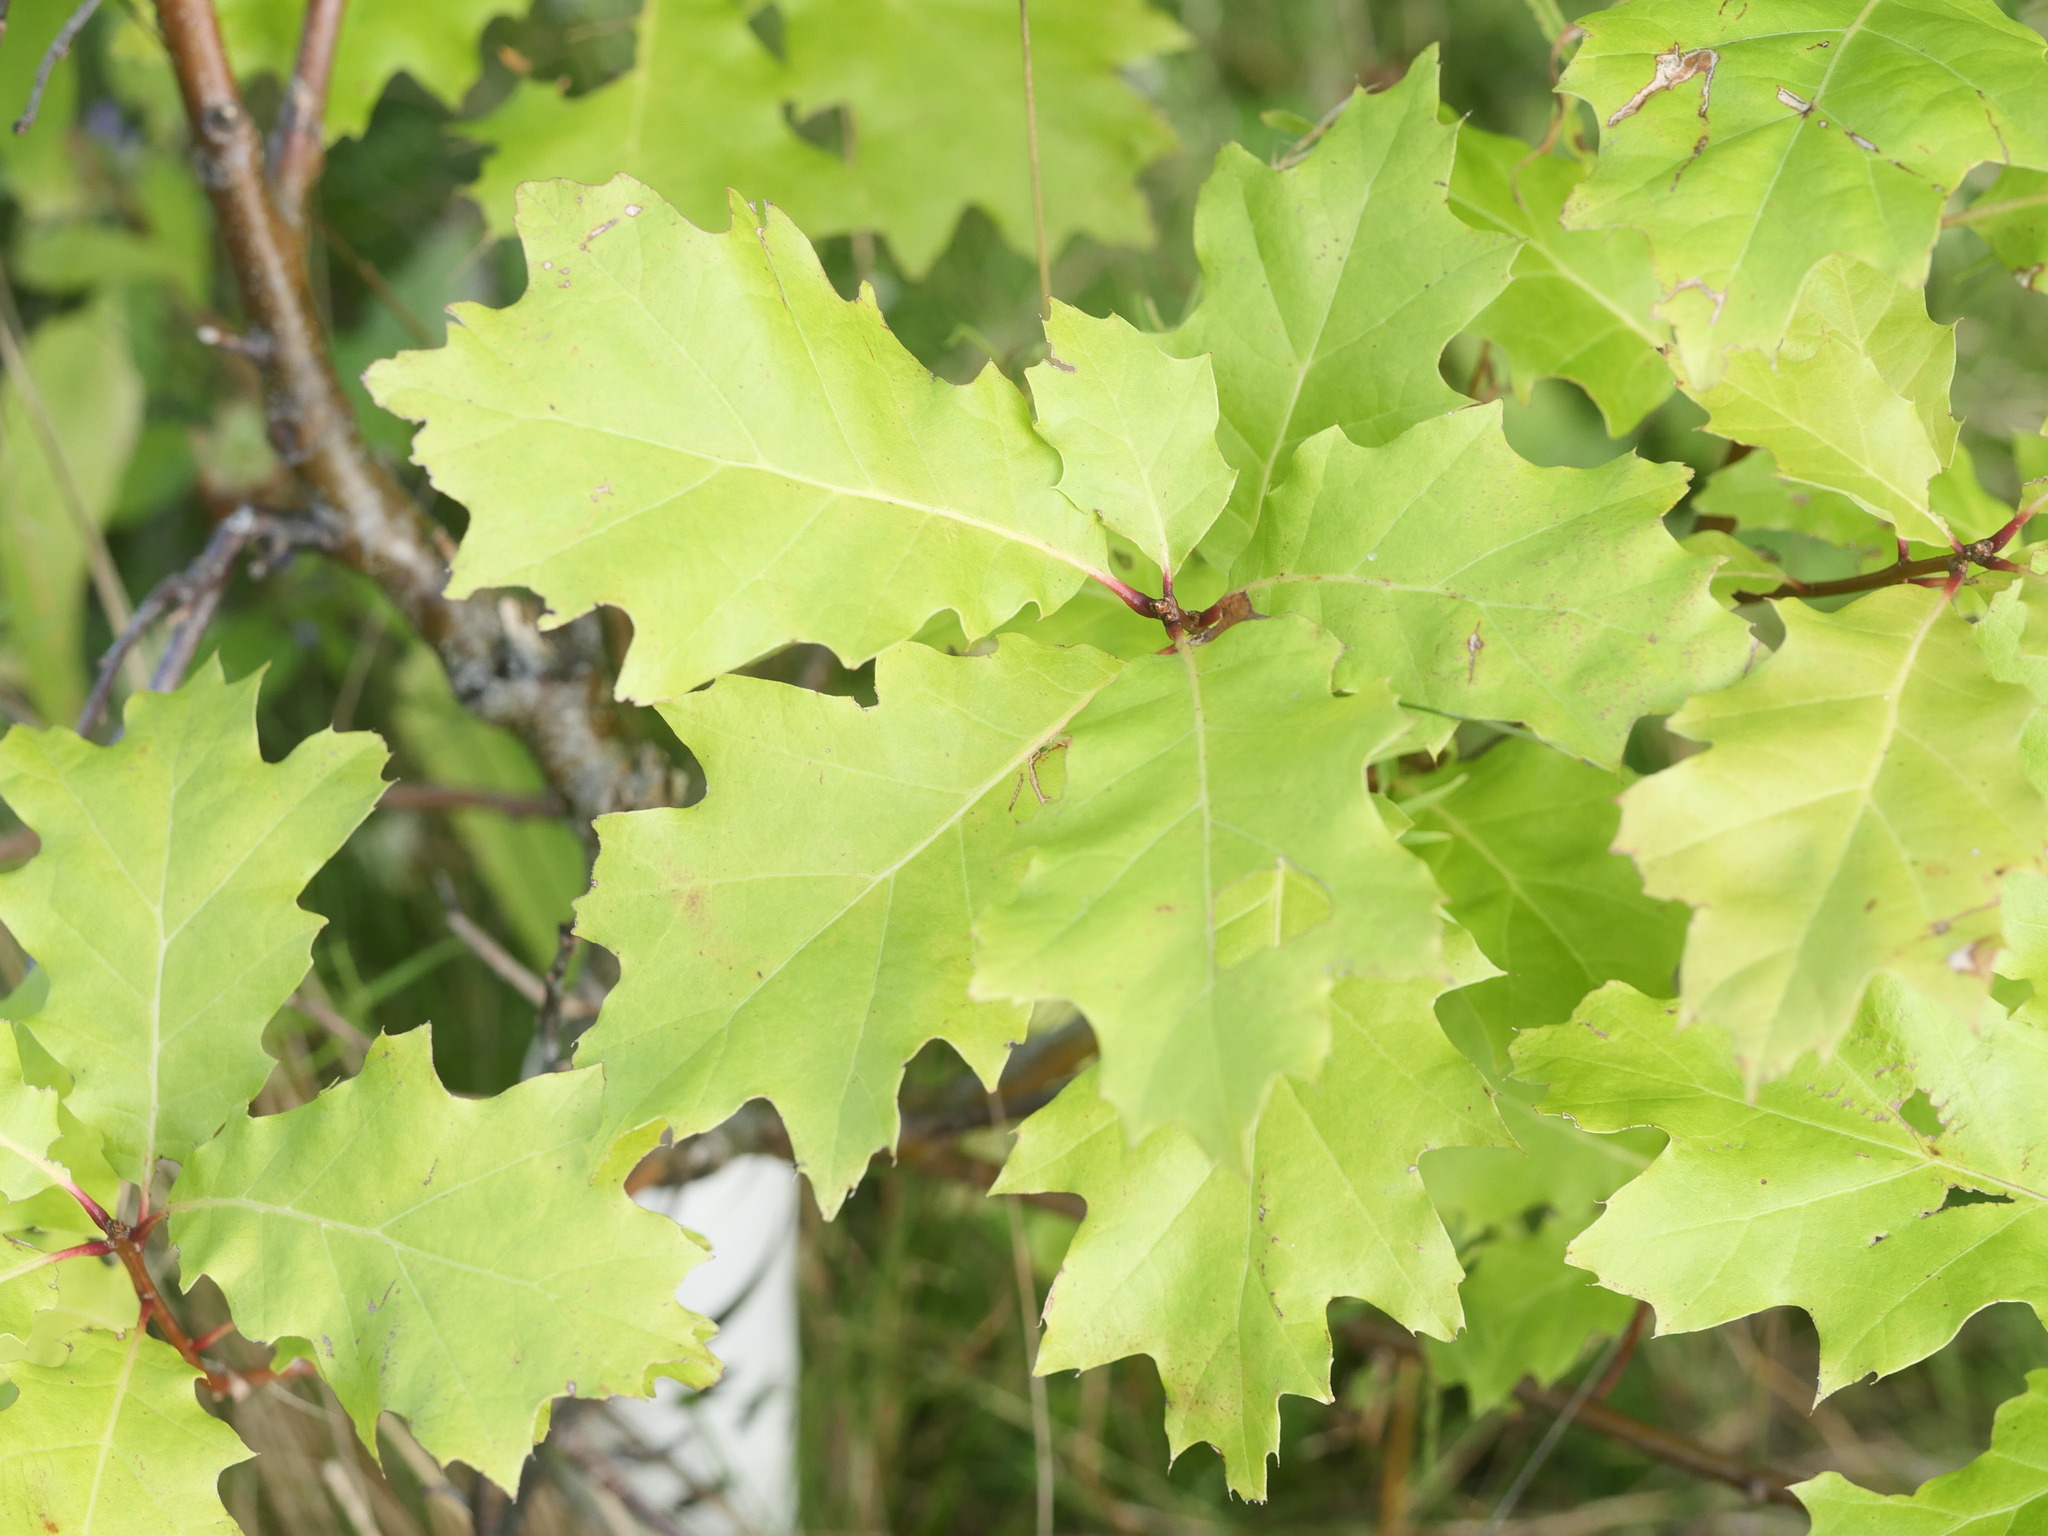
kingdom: Plantae
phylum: Tracheophyta
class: Magnoliopsida
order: Fagales
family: Fagaceae
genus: Quercus
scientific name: Quercus rubra
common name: Red oak
